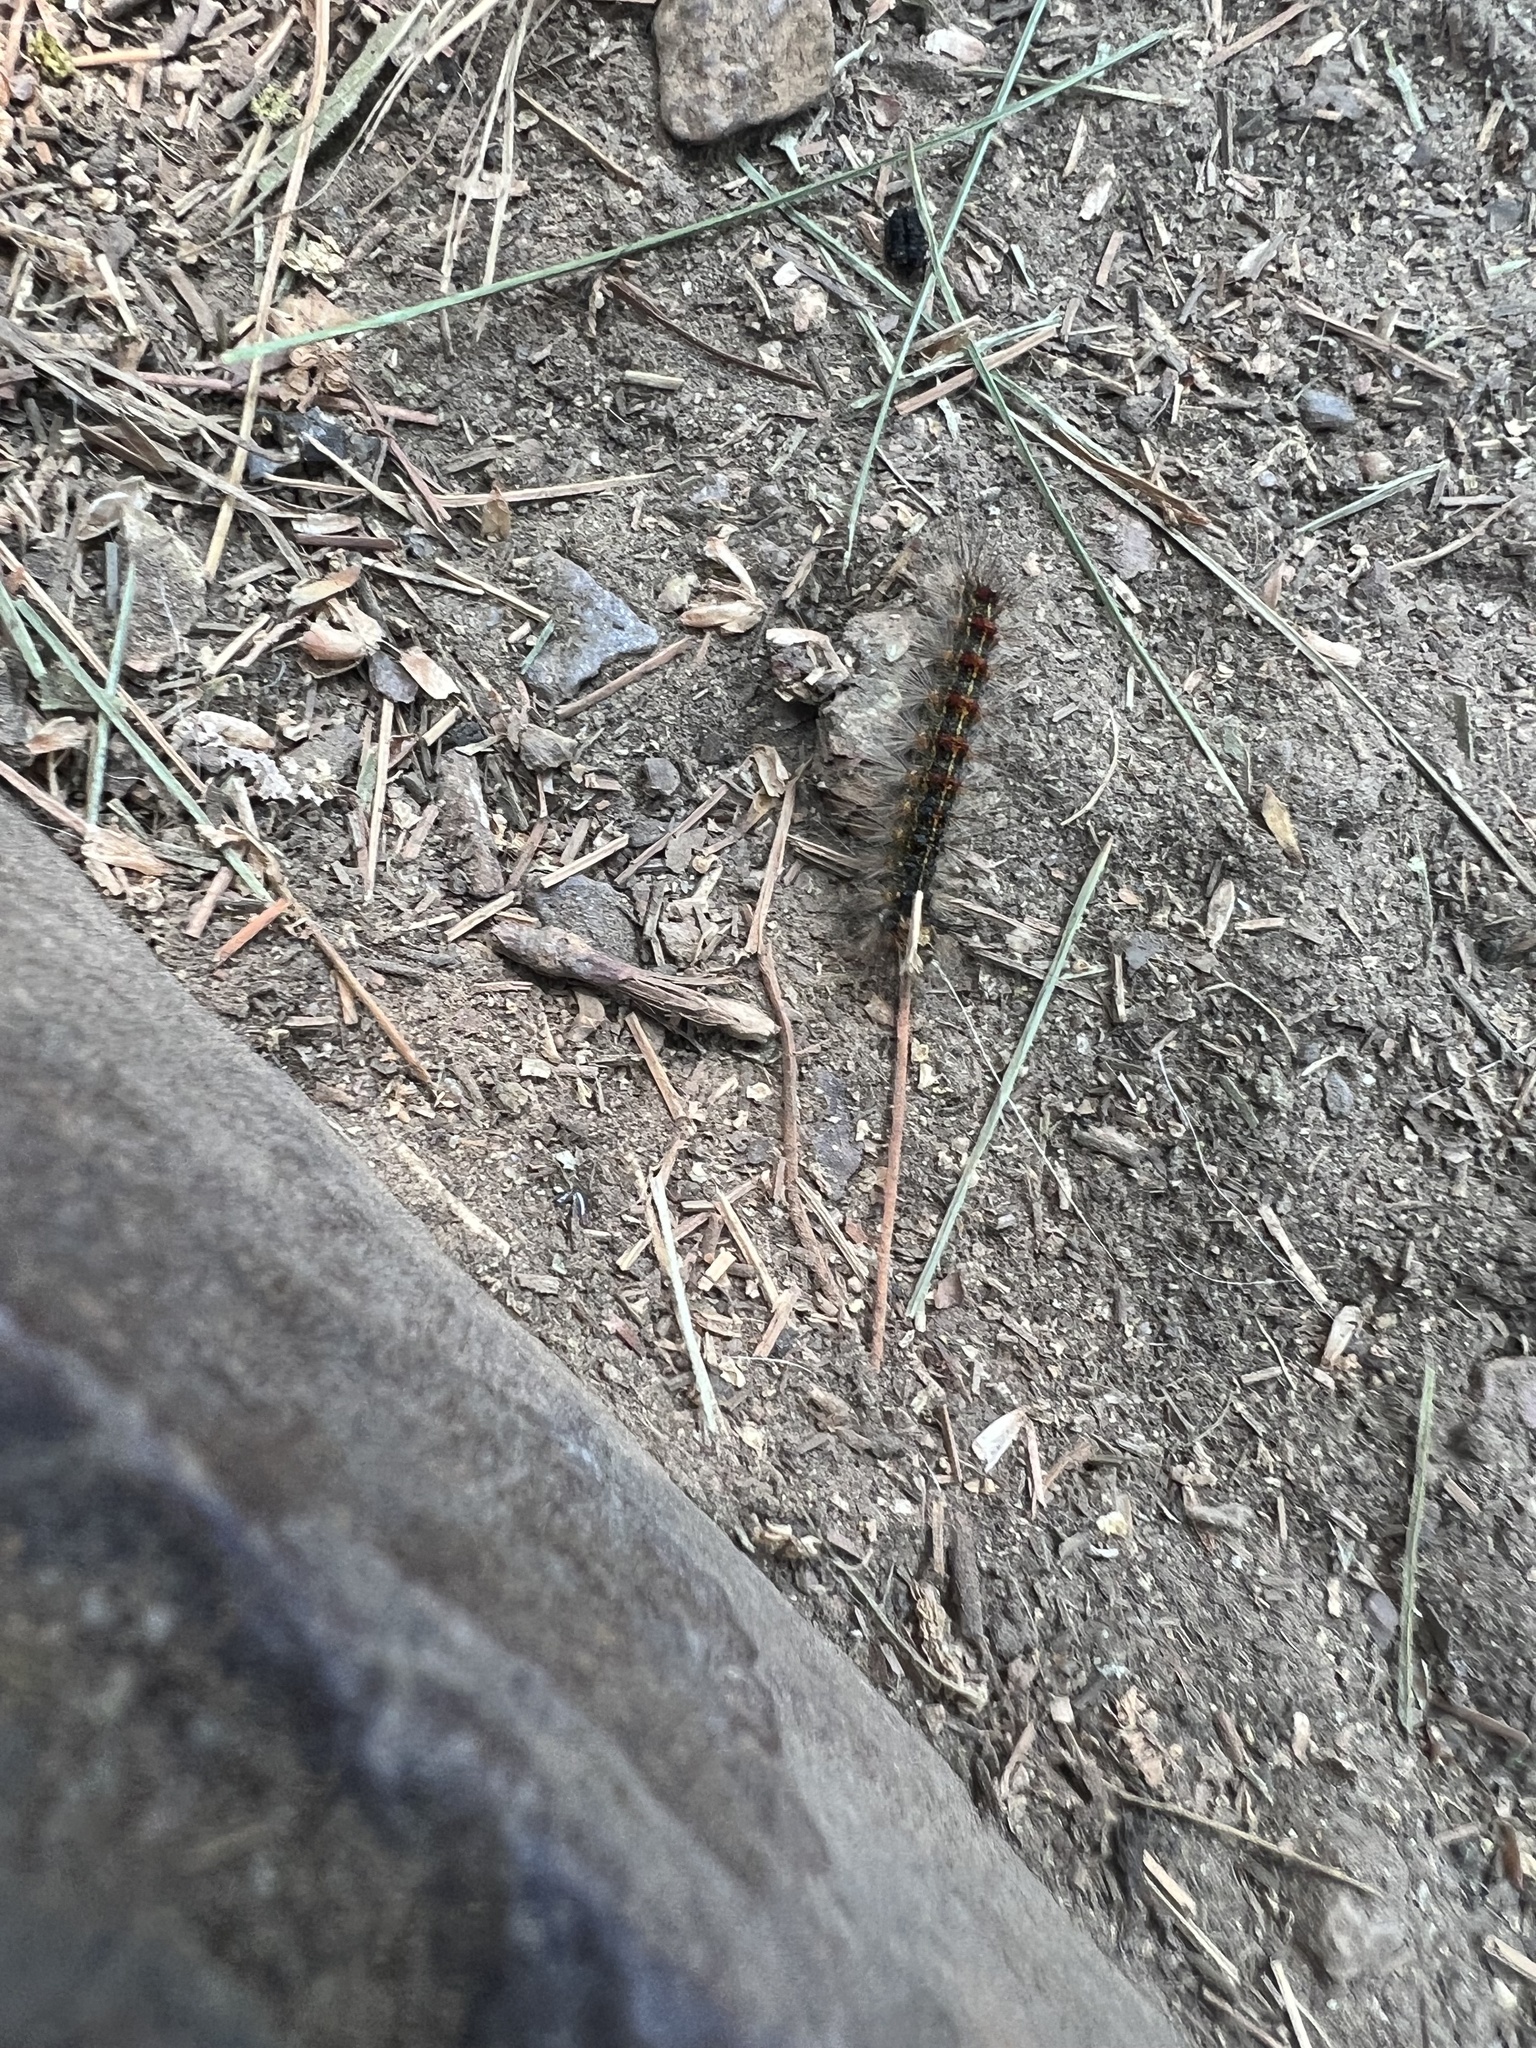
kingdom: Animalia
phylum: Arthropoda
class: Insecta
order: Lepidoptera
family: Erebidae
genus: Lymantria
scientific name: Lymantria dispar
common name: Gypsy moth
